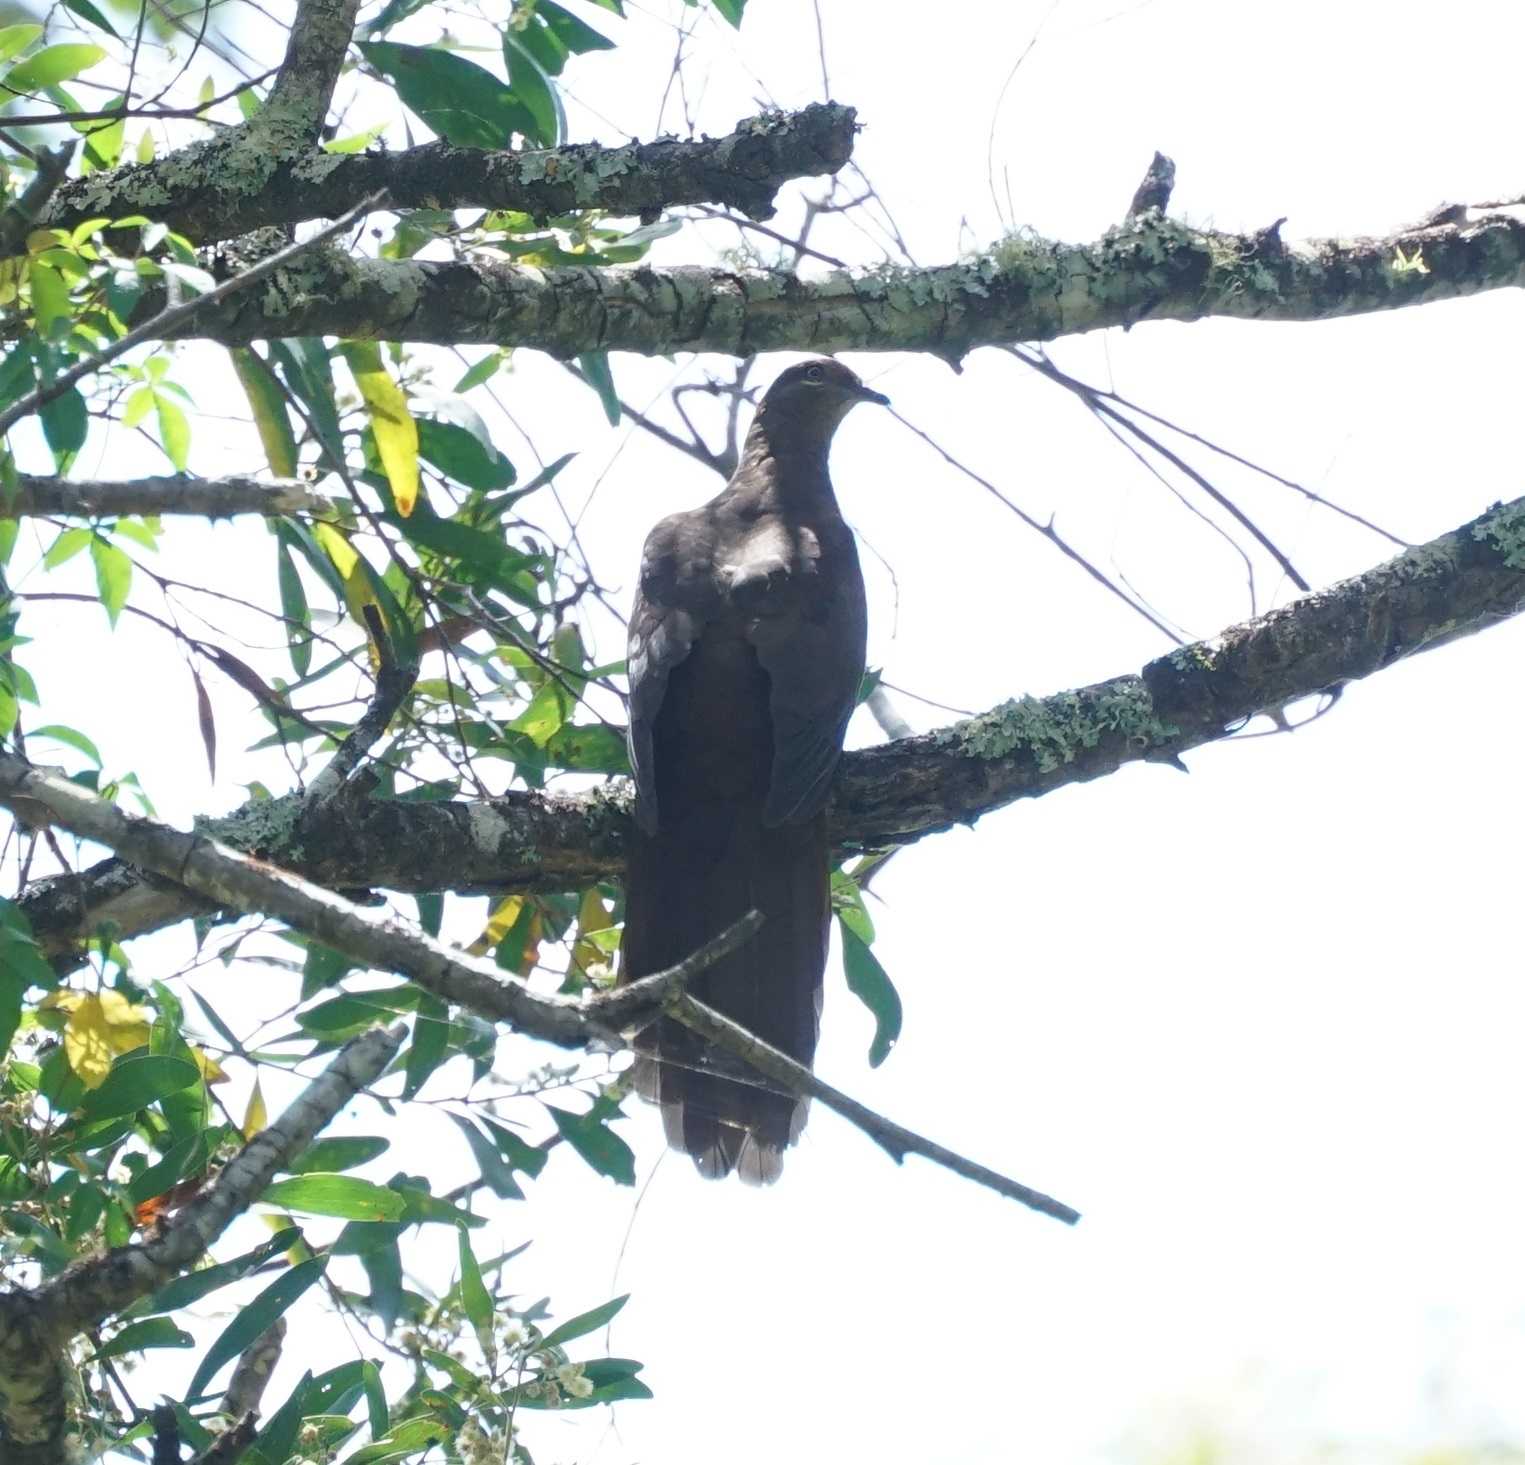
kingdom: Animalia
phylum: Chordata
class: Aves
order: Columbiformes
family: Columbidae
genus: Macropygia
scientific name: Macropygia phasianella
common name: Brown cuckoo-dove
